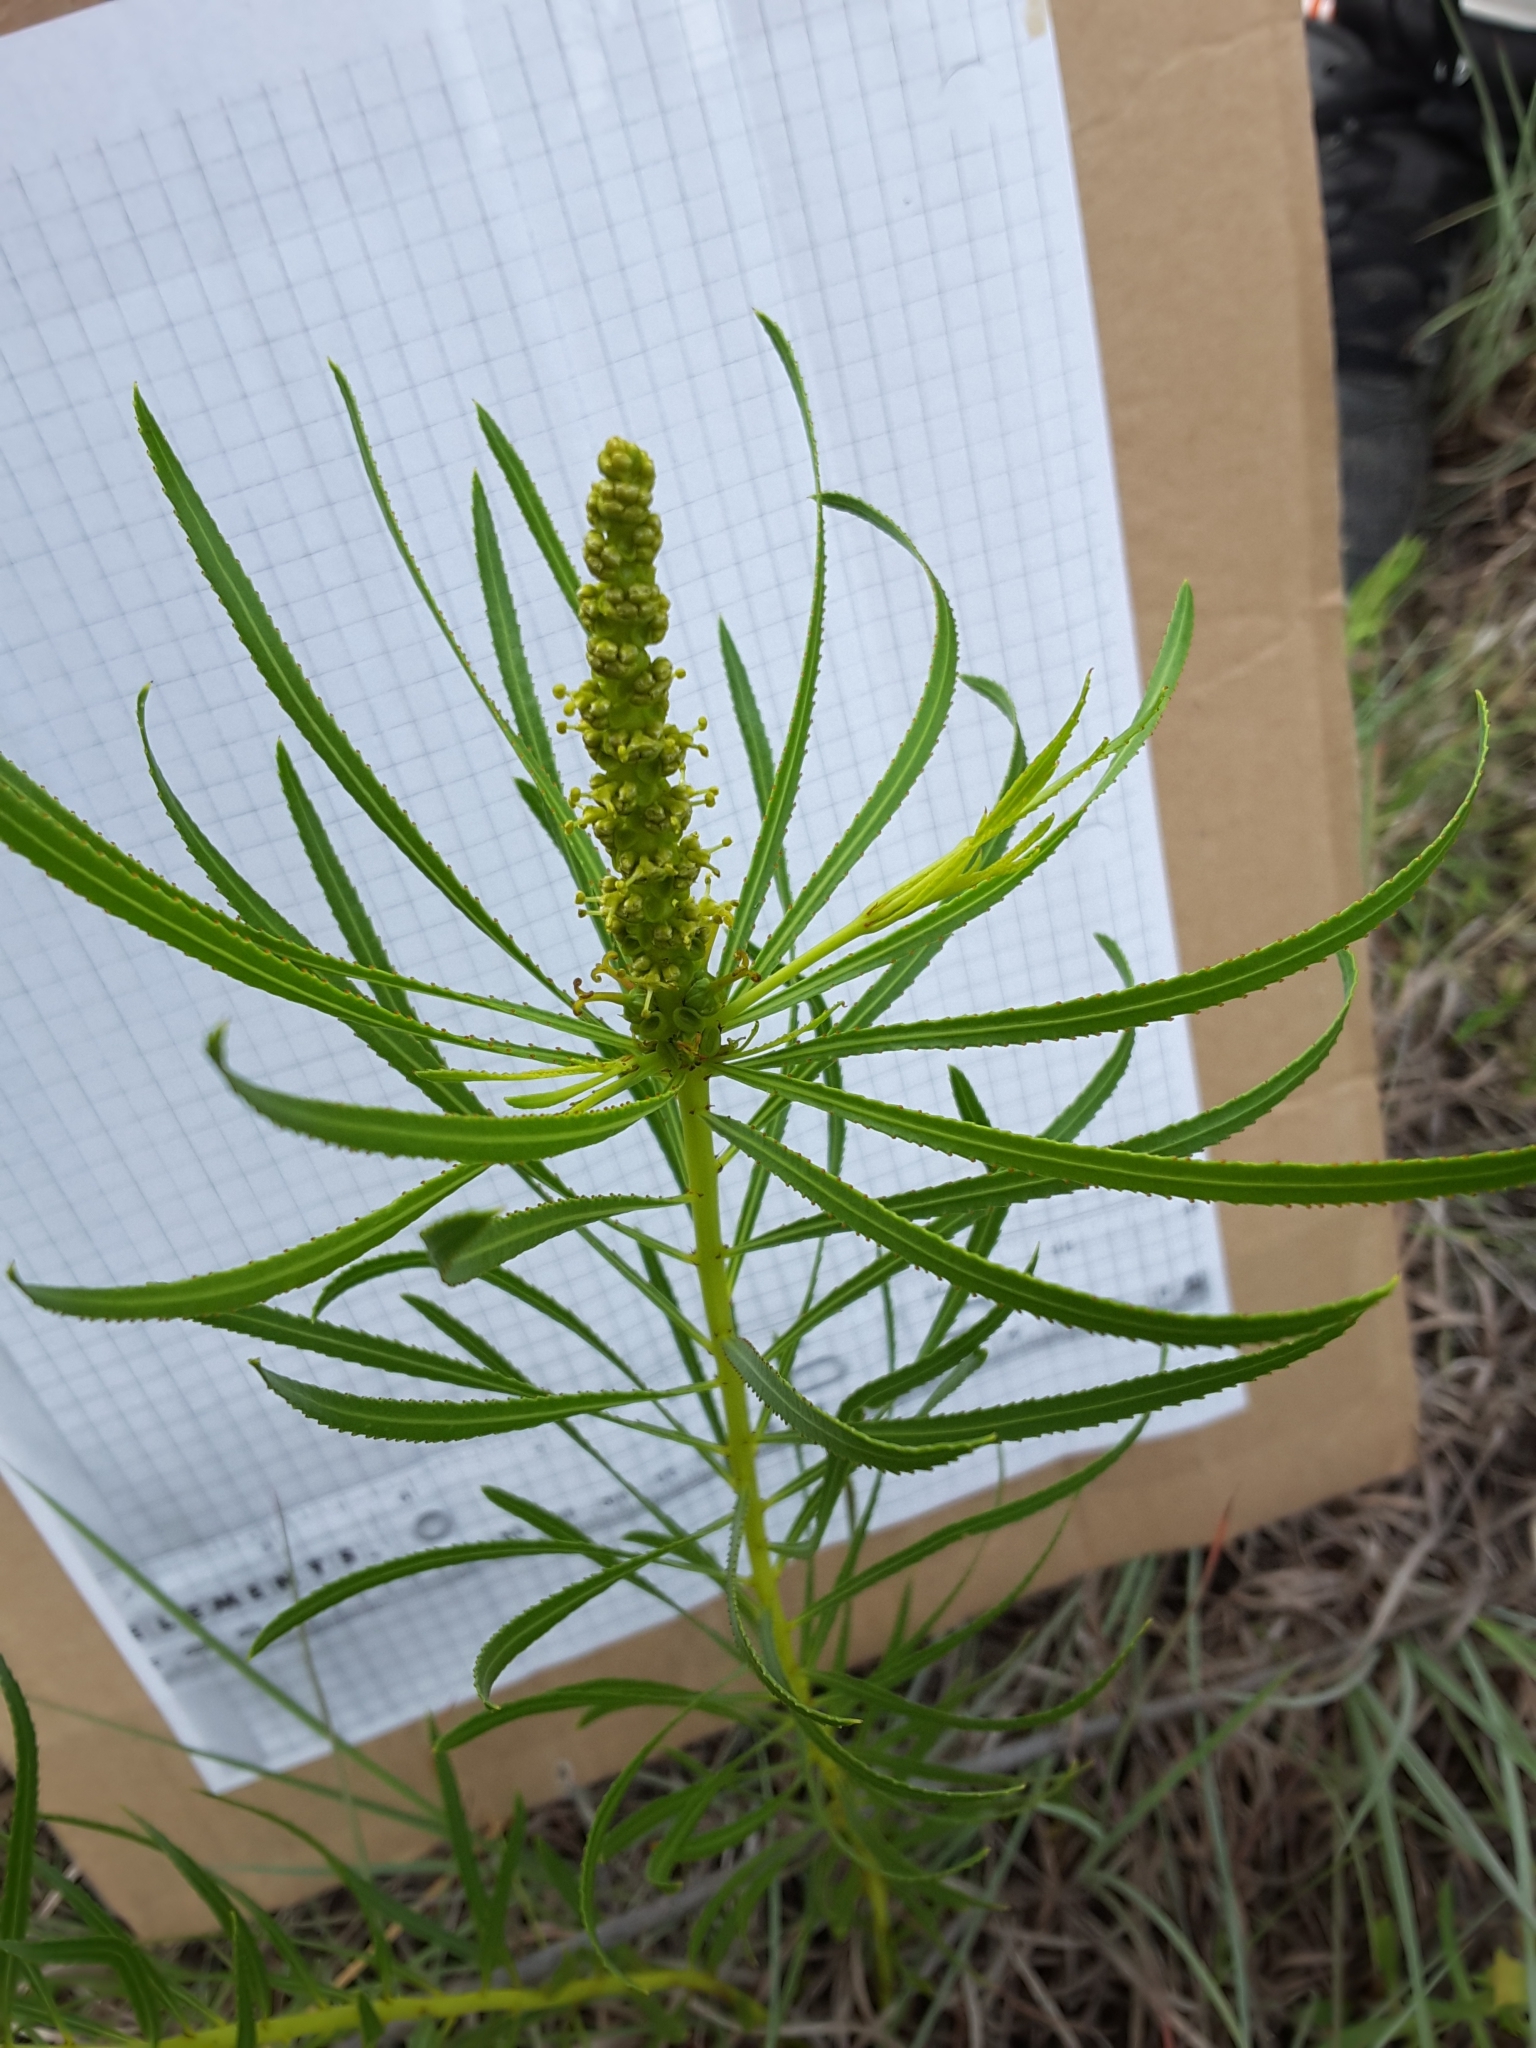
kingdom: Plantae
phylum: Tracheophyta
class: Magnoliopsida
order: Malpighiales
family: Euphorbiaceae
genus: Stillingia
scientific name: Stillingia texana
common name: Texas stillingia
